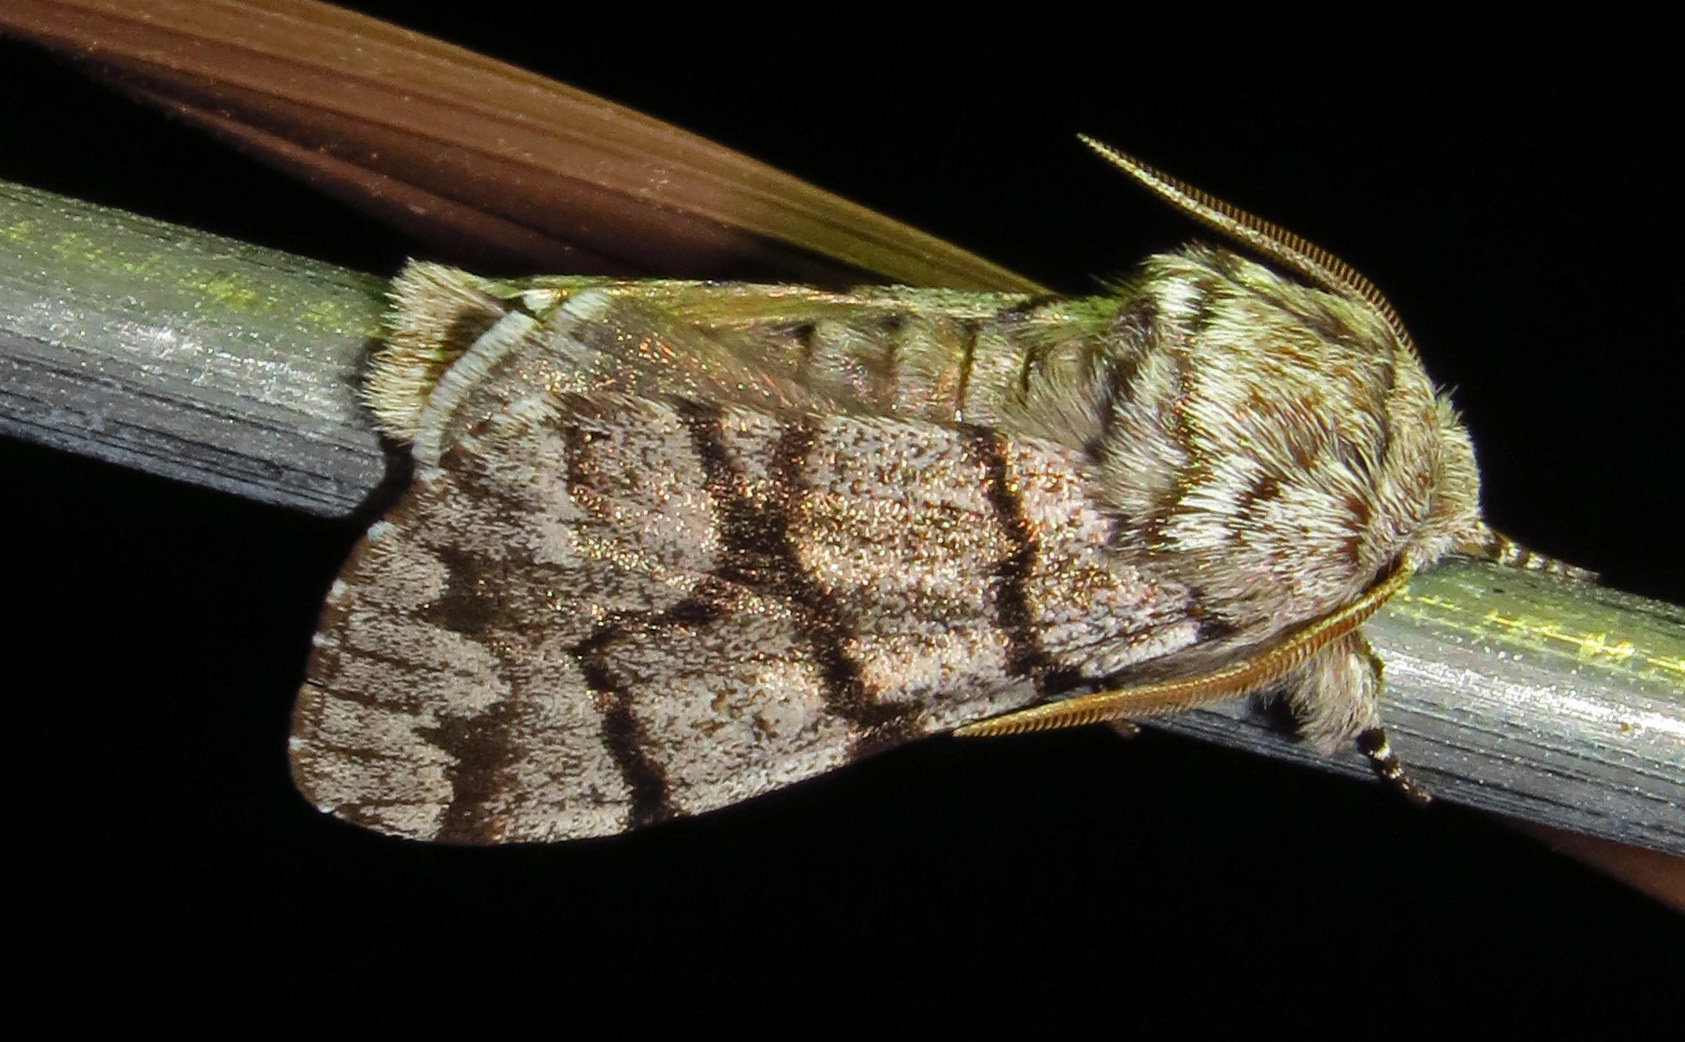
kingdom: Animalia
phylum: Arthropoda
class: Insecta
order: Lepidoptera
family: Noctuidae
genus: Panthea
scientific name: Panthea furcilla
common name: Eastern panthea moth
